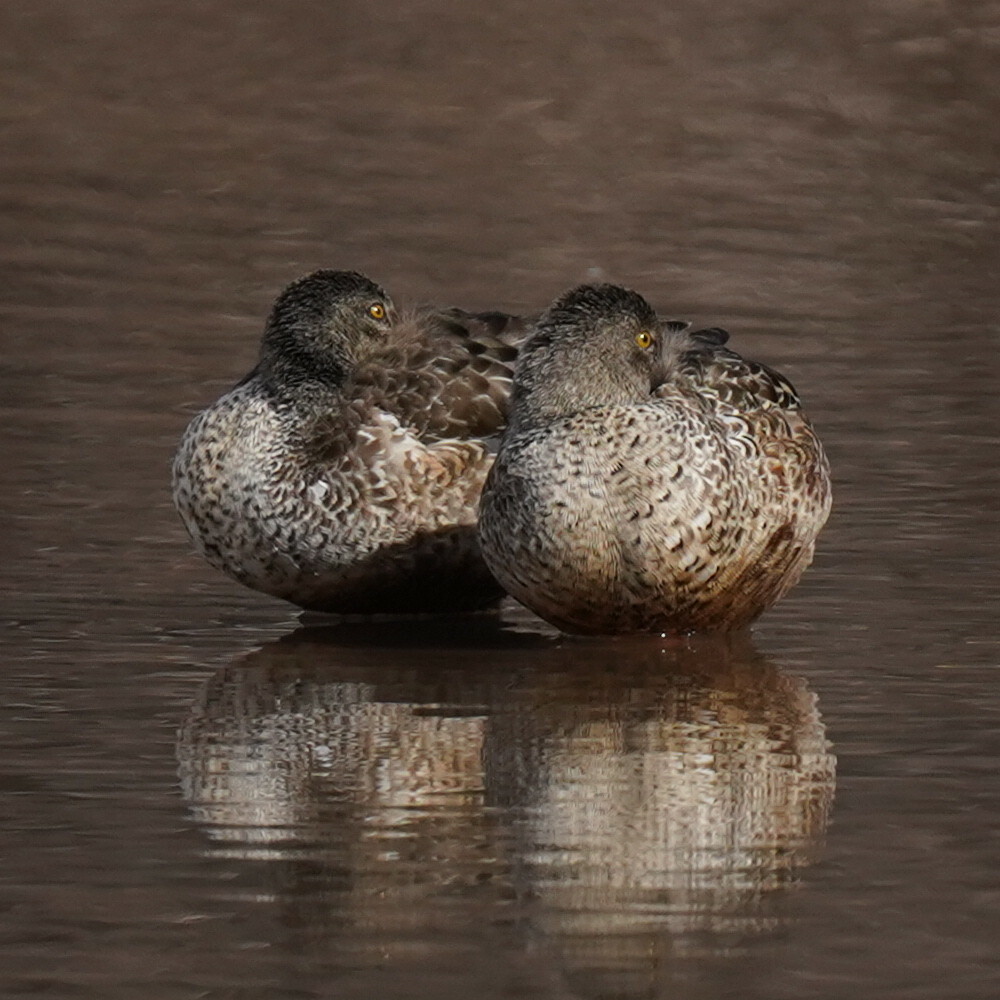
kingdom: Animalia
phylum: Chordata
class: Aves
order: Anseriformes
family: Anatidae
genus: Spatula
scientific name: Spatula clypeata
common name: Northern shoveler
